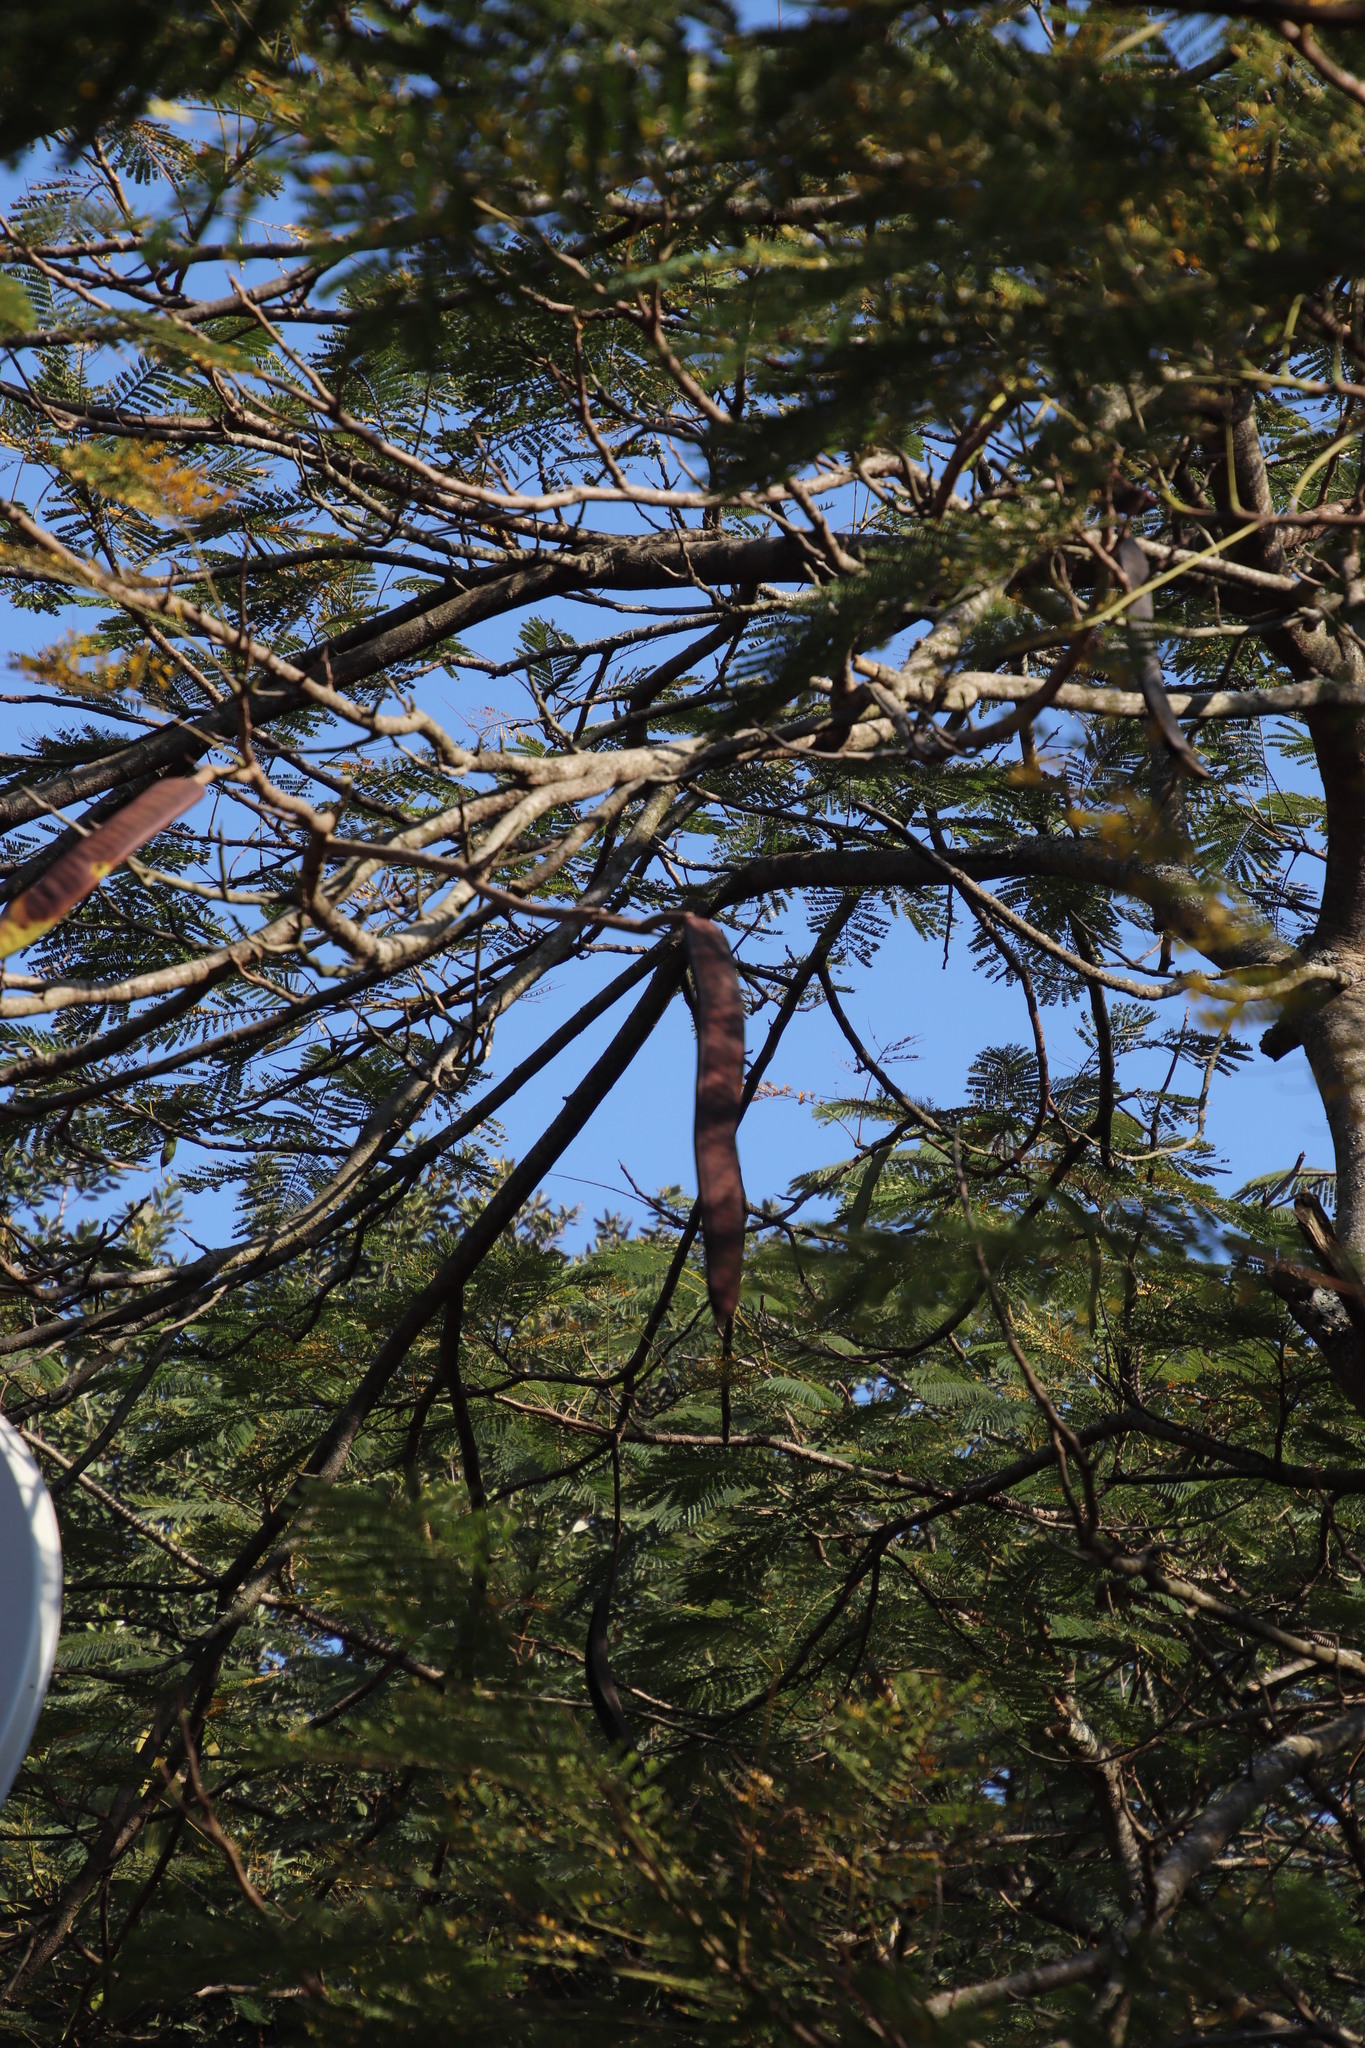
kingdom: Plantae
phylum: Tracheophyta
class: Magnoliopsida
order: Fabales
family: Fabaceae
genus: Delonix
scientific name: Delonix regia
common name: Royal poinciana
